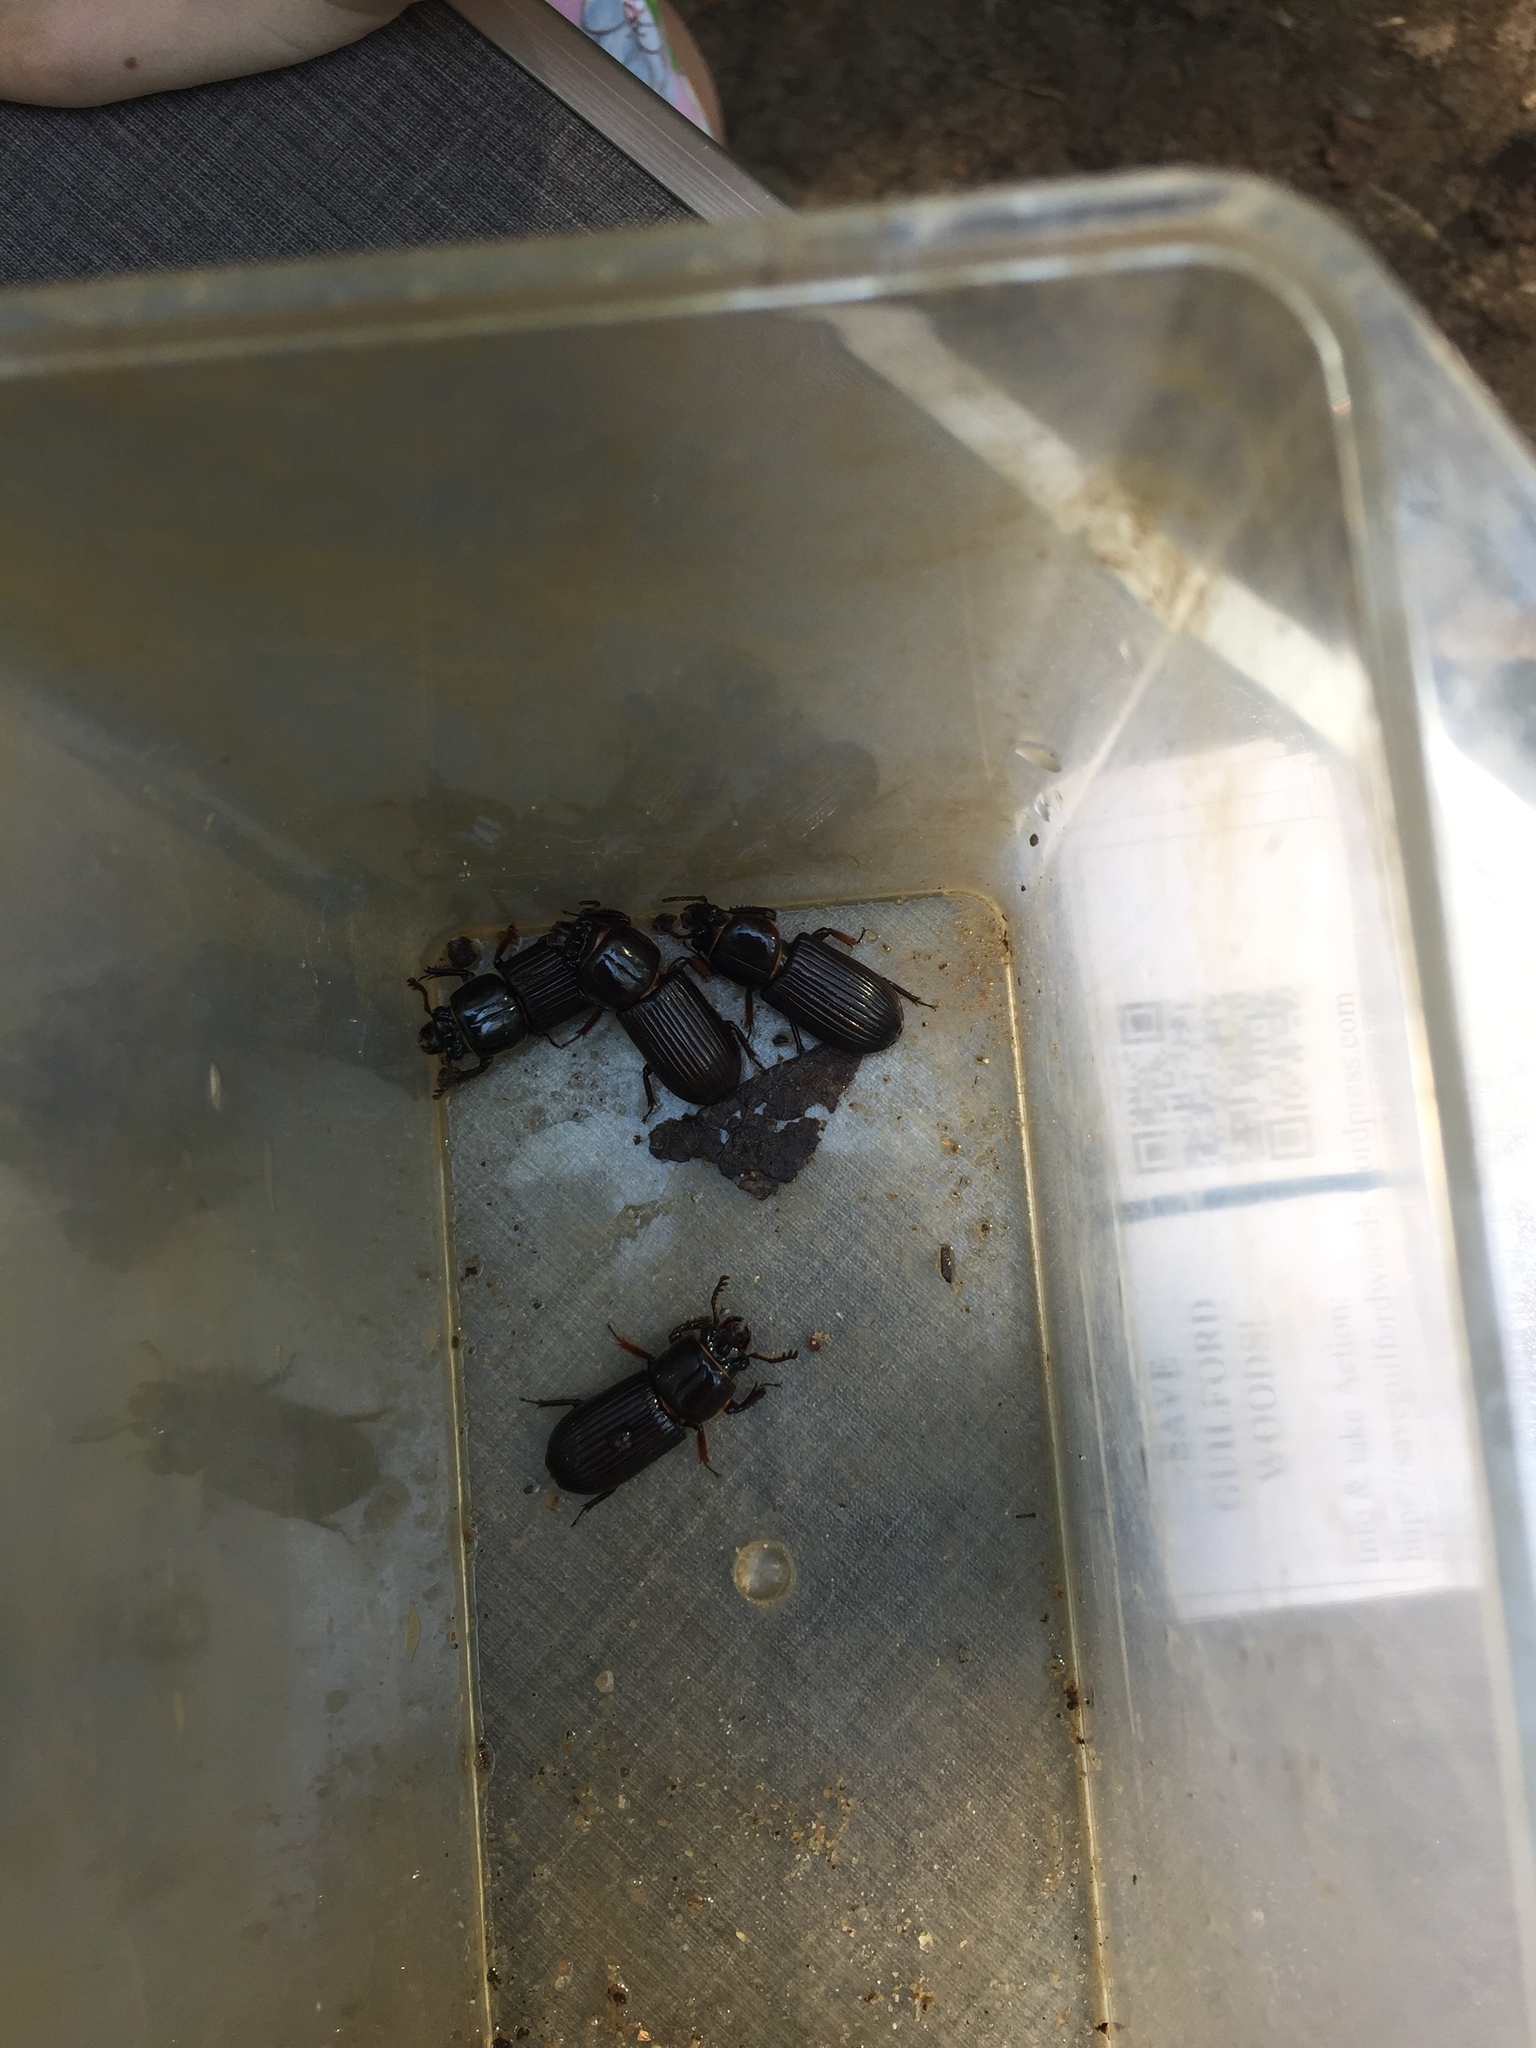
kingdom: Animalia
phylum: Arthropoda
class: Insecta
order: Coleoptera
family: Passalidae
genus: Odontotaenius
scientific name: Odontotaenius disjunctus
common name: Patent leather beetle
